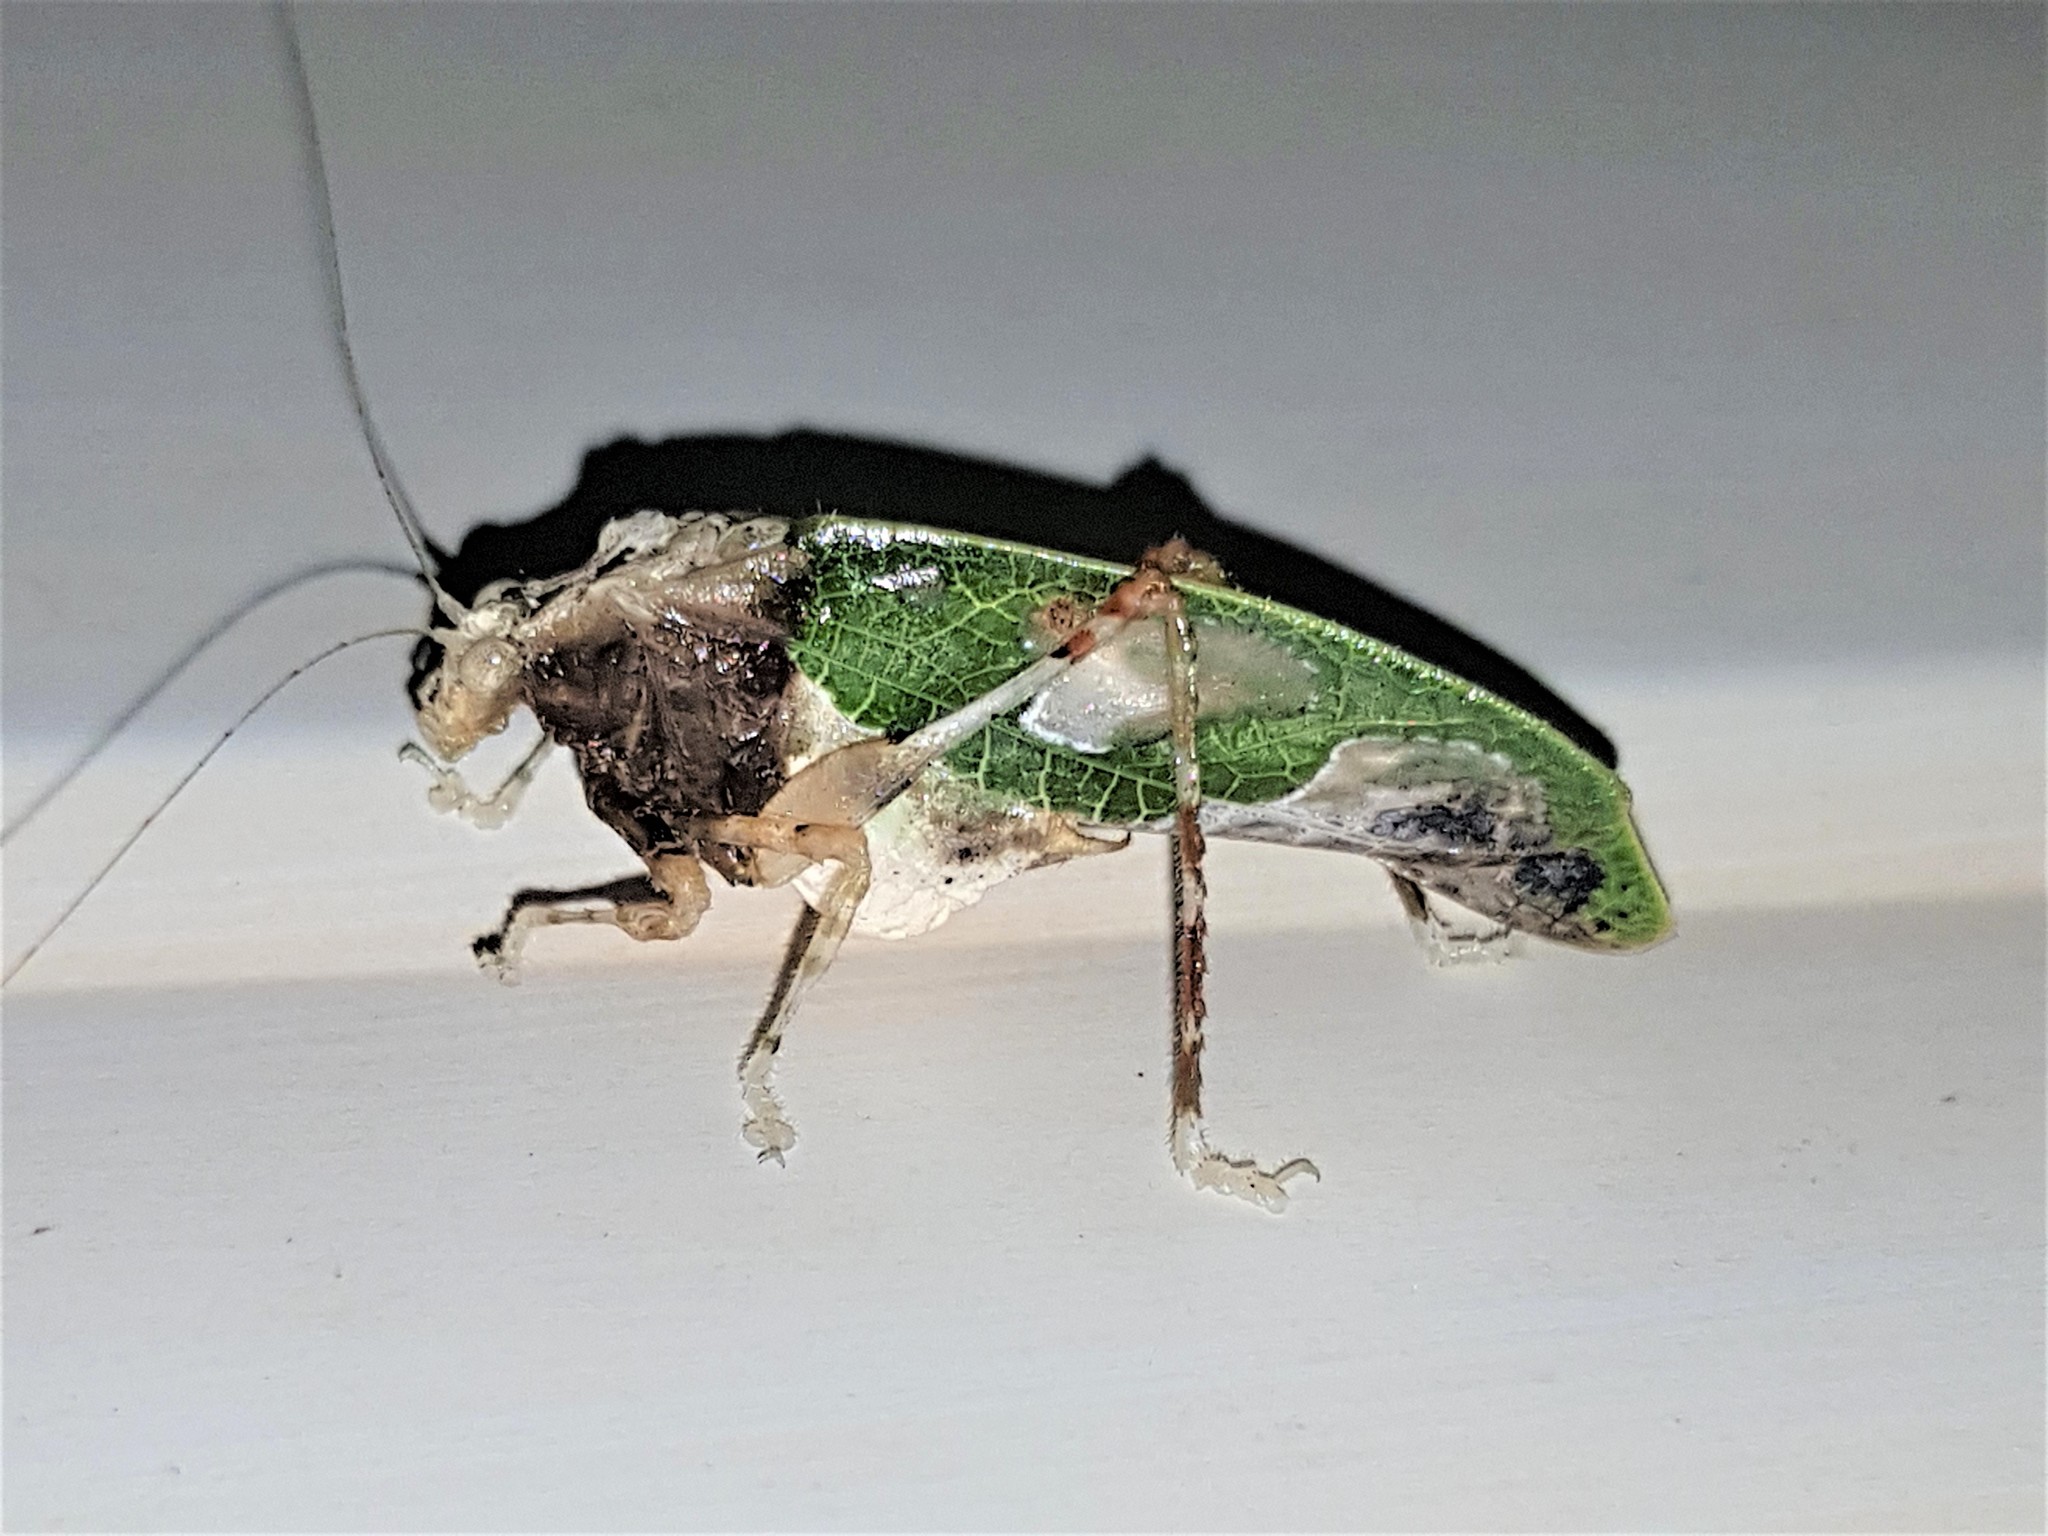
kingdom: Animalia
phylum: Arthropoda
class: Insecta
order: Orthoptera
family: Tettigoniidae
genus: Pycnopalpa
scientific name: Pycnopalpa angusticordata
